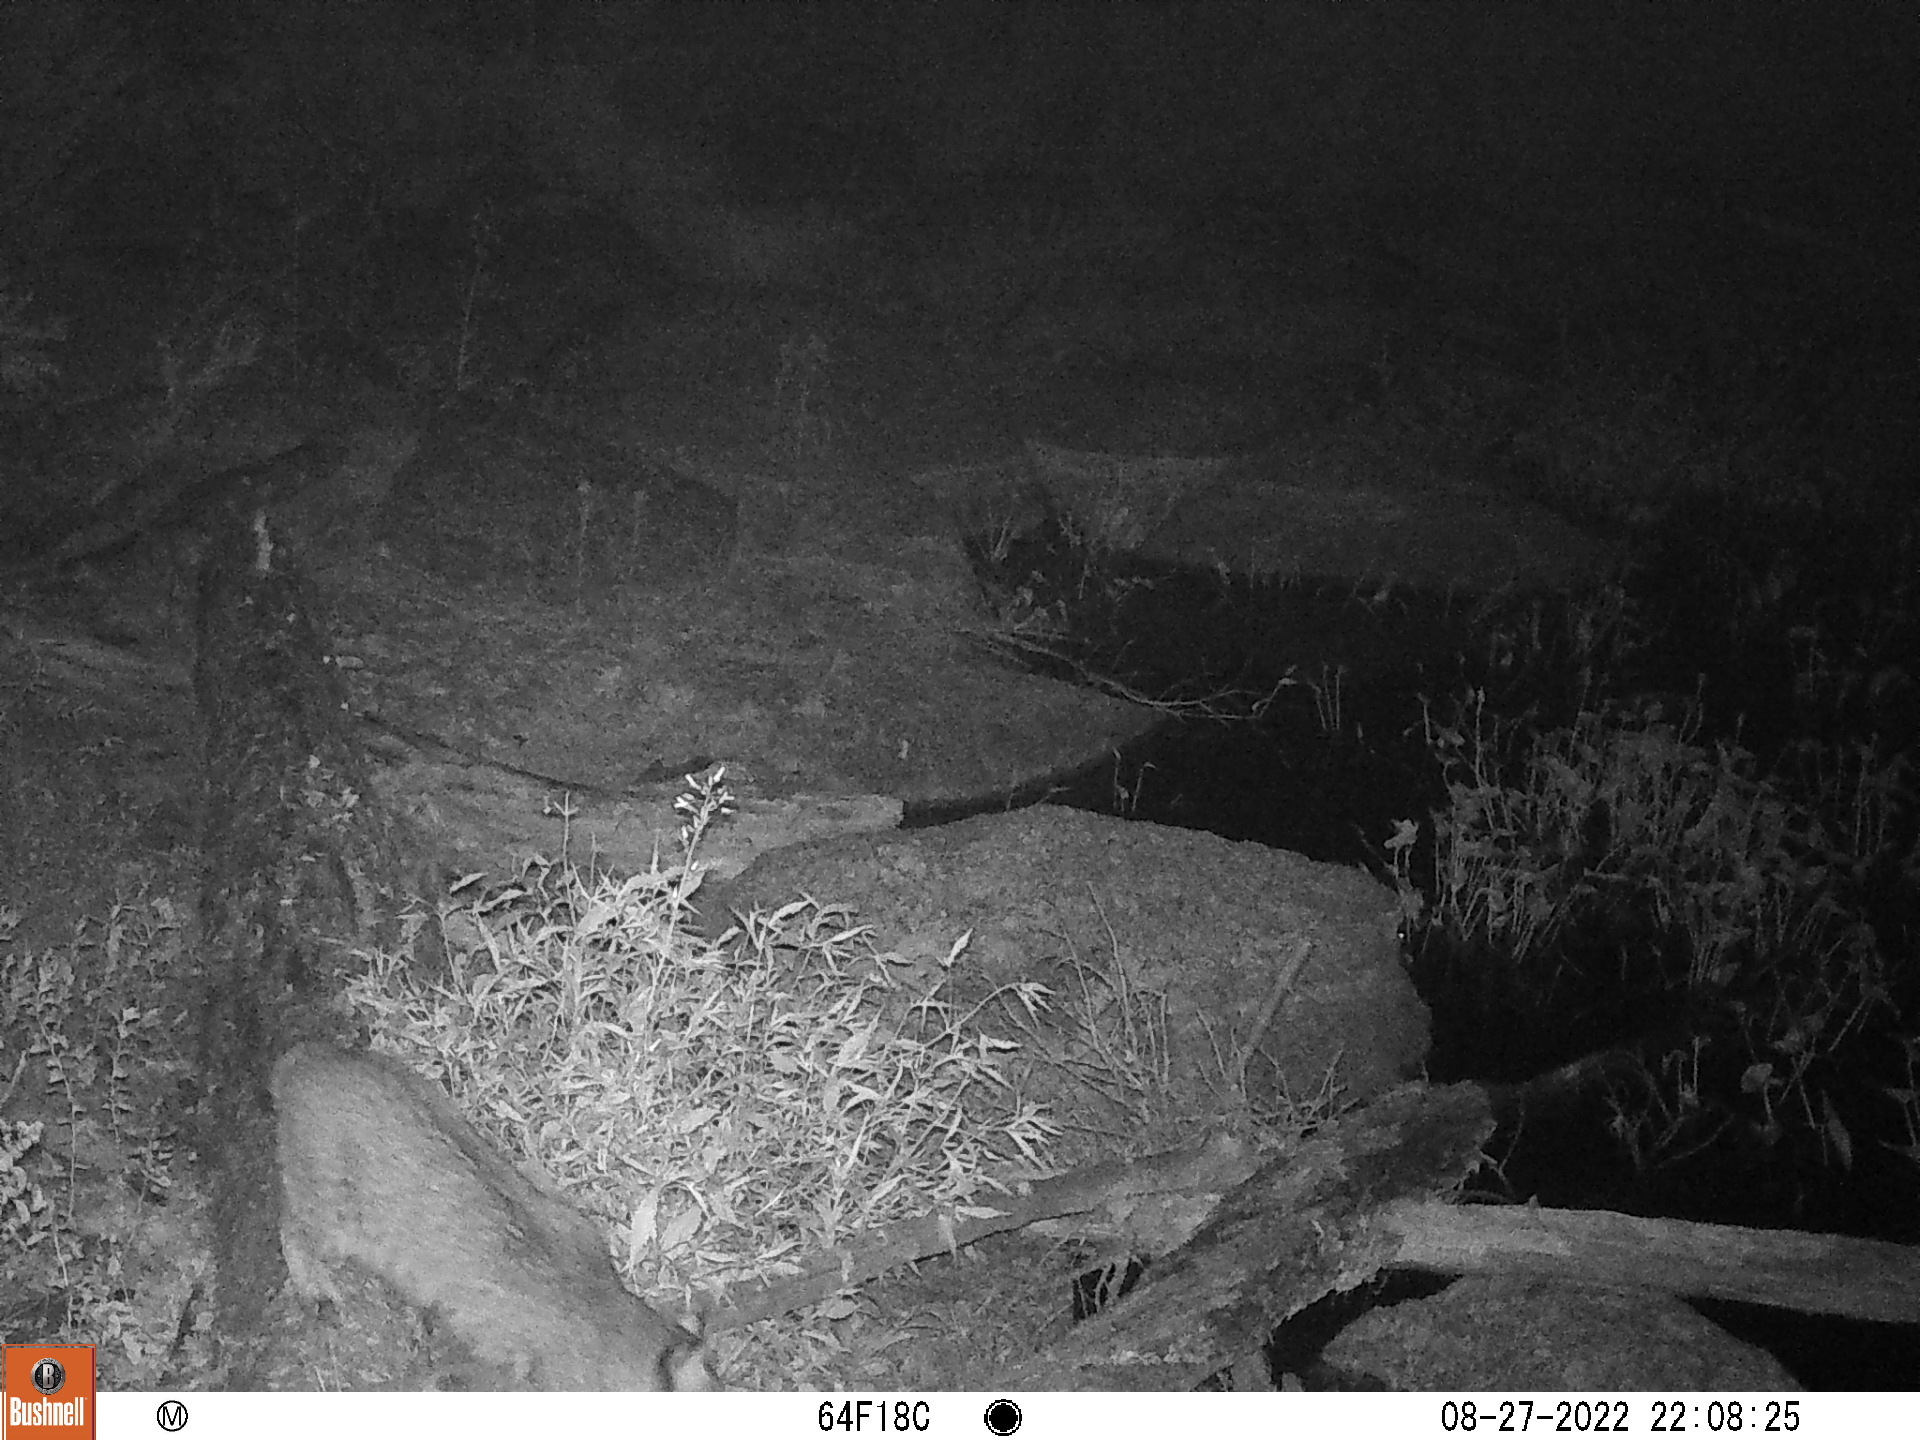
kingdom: Animalia
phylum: Chordata
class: Mammalia
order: Carnivora
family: Felidae
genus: Lynx
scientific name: Lynx rufus
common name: Bobcat
